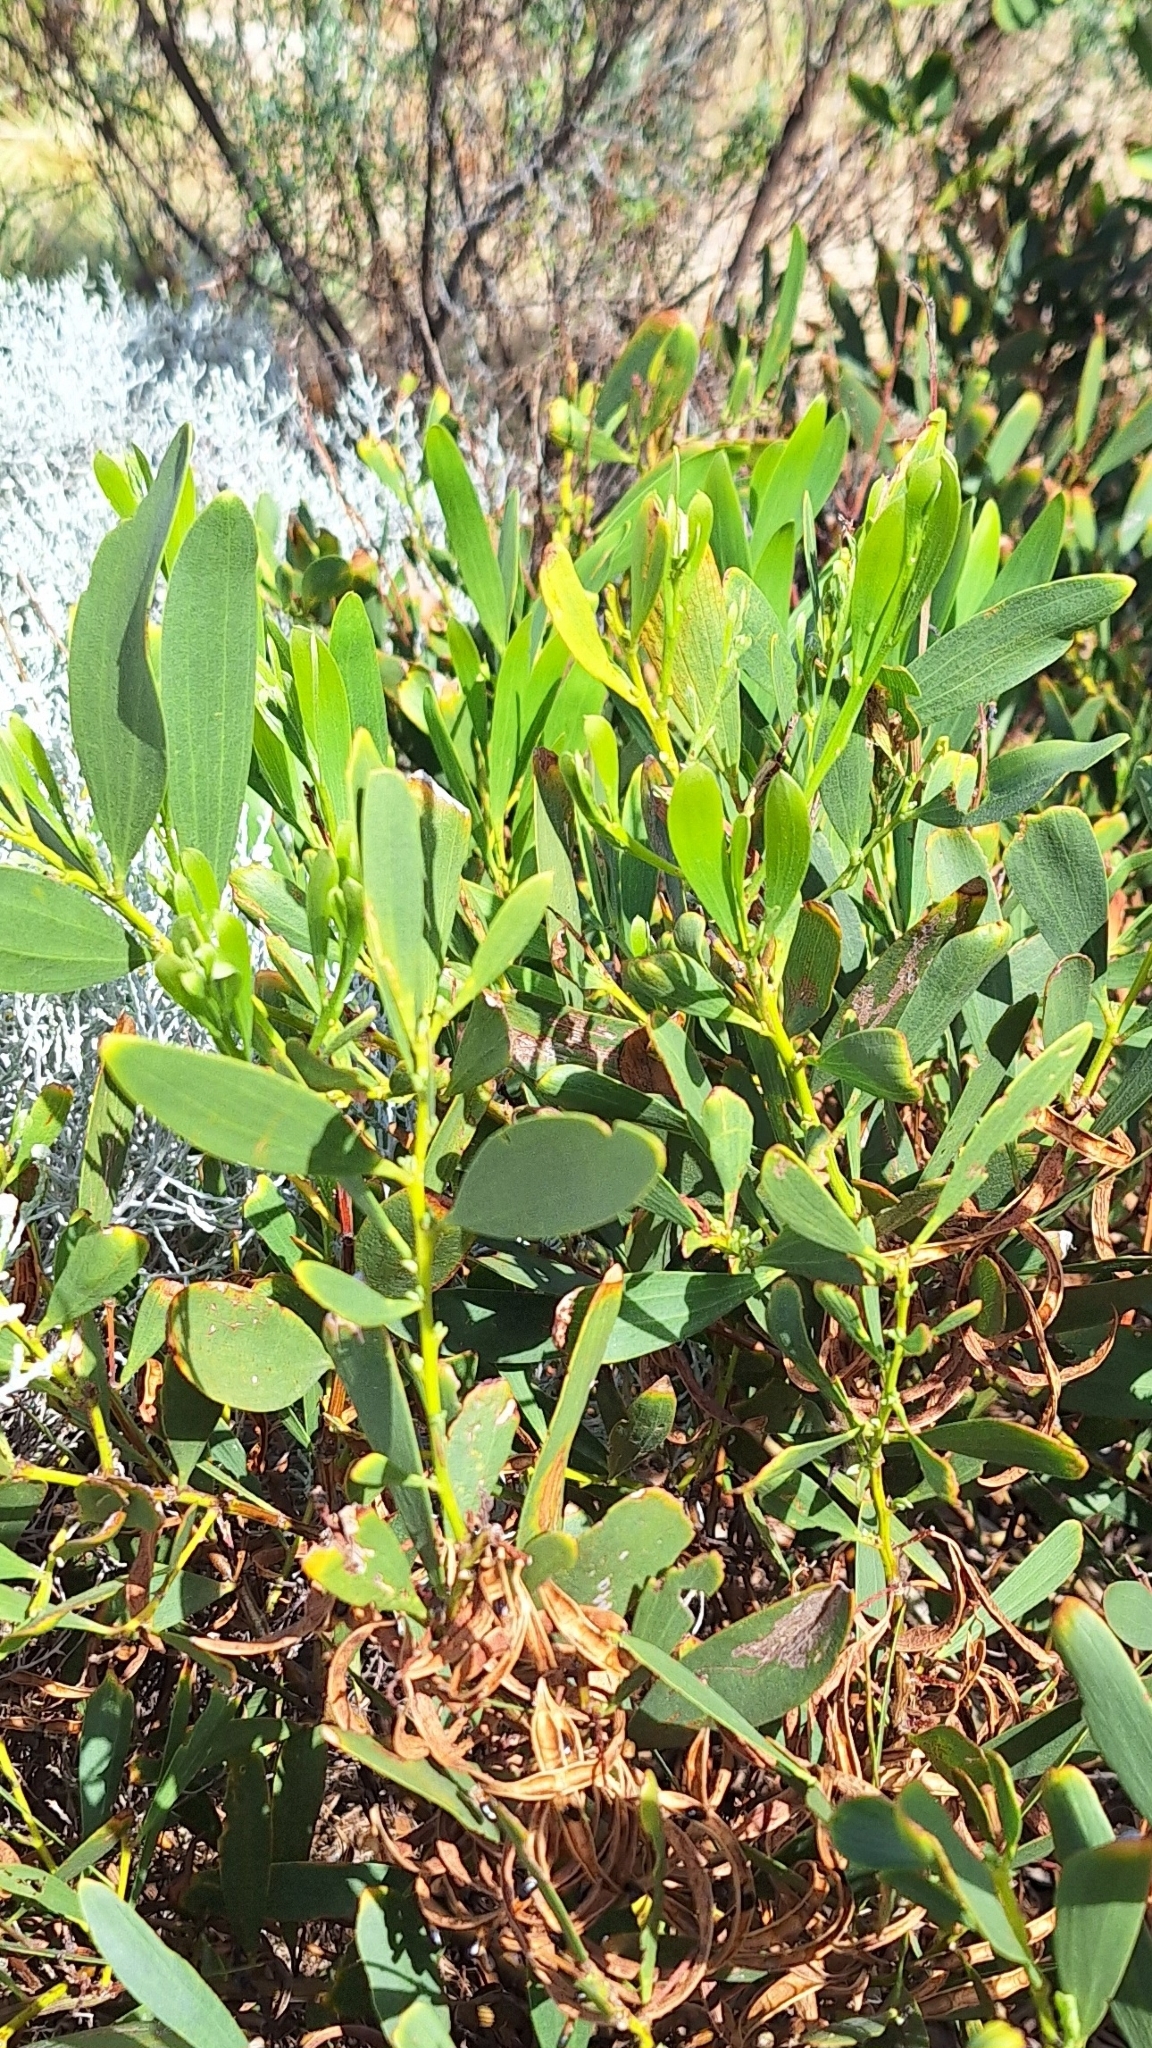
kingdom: Plantae
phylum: Tracheophyta
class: Magnoliopsida
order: Fabales
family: Fabaceae
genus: Acacia
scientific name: Acacia longifolia
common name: Sydney golden wattle
